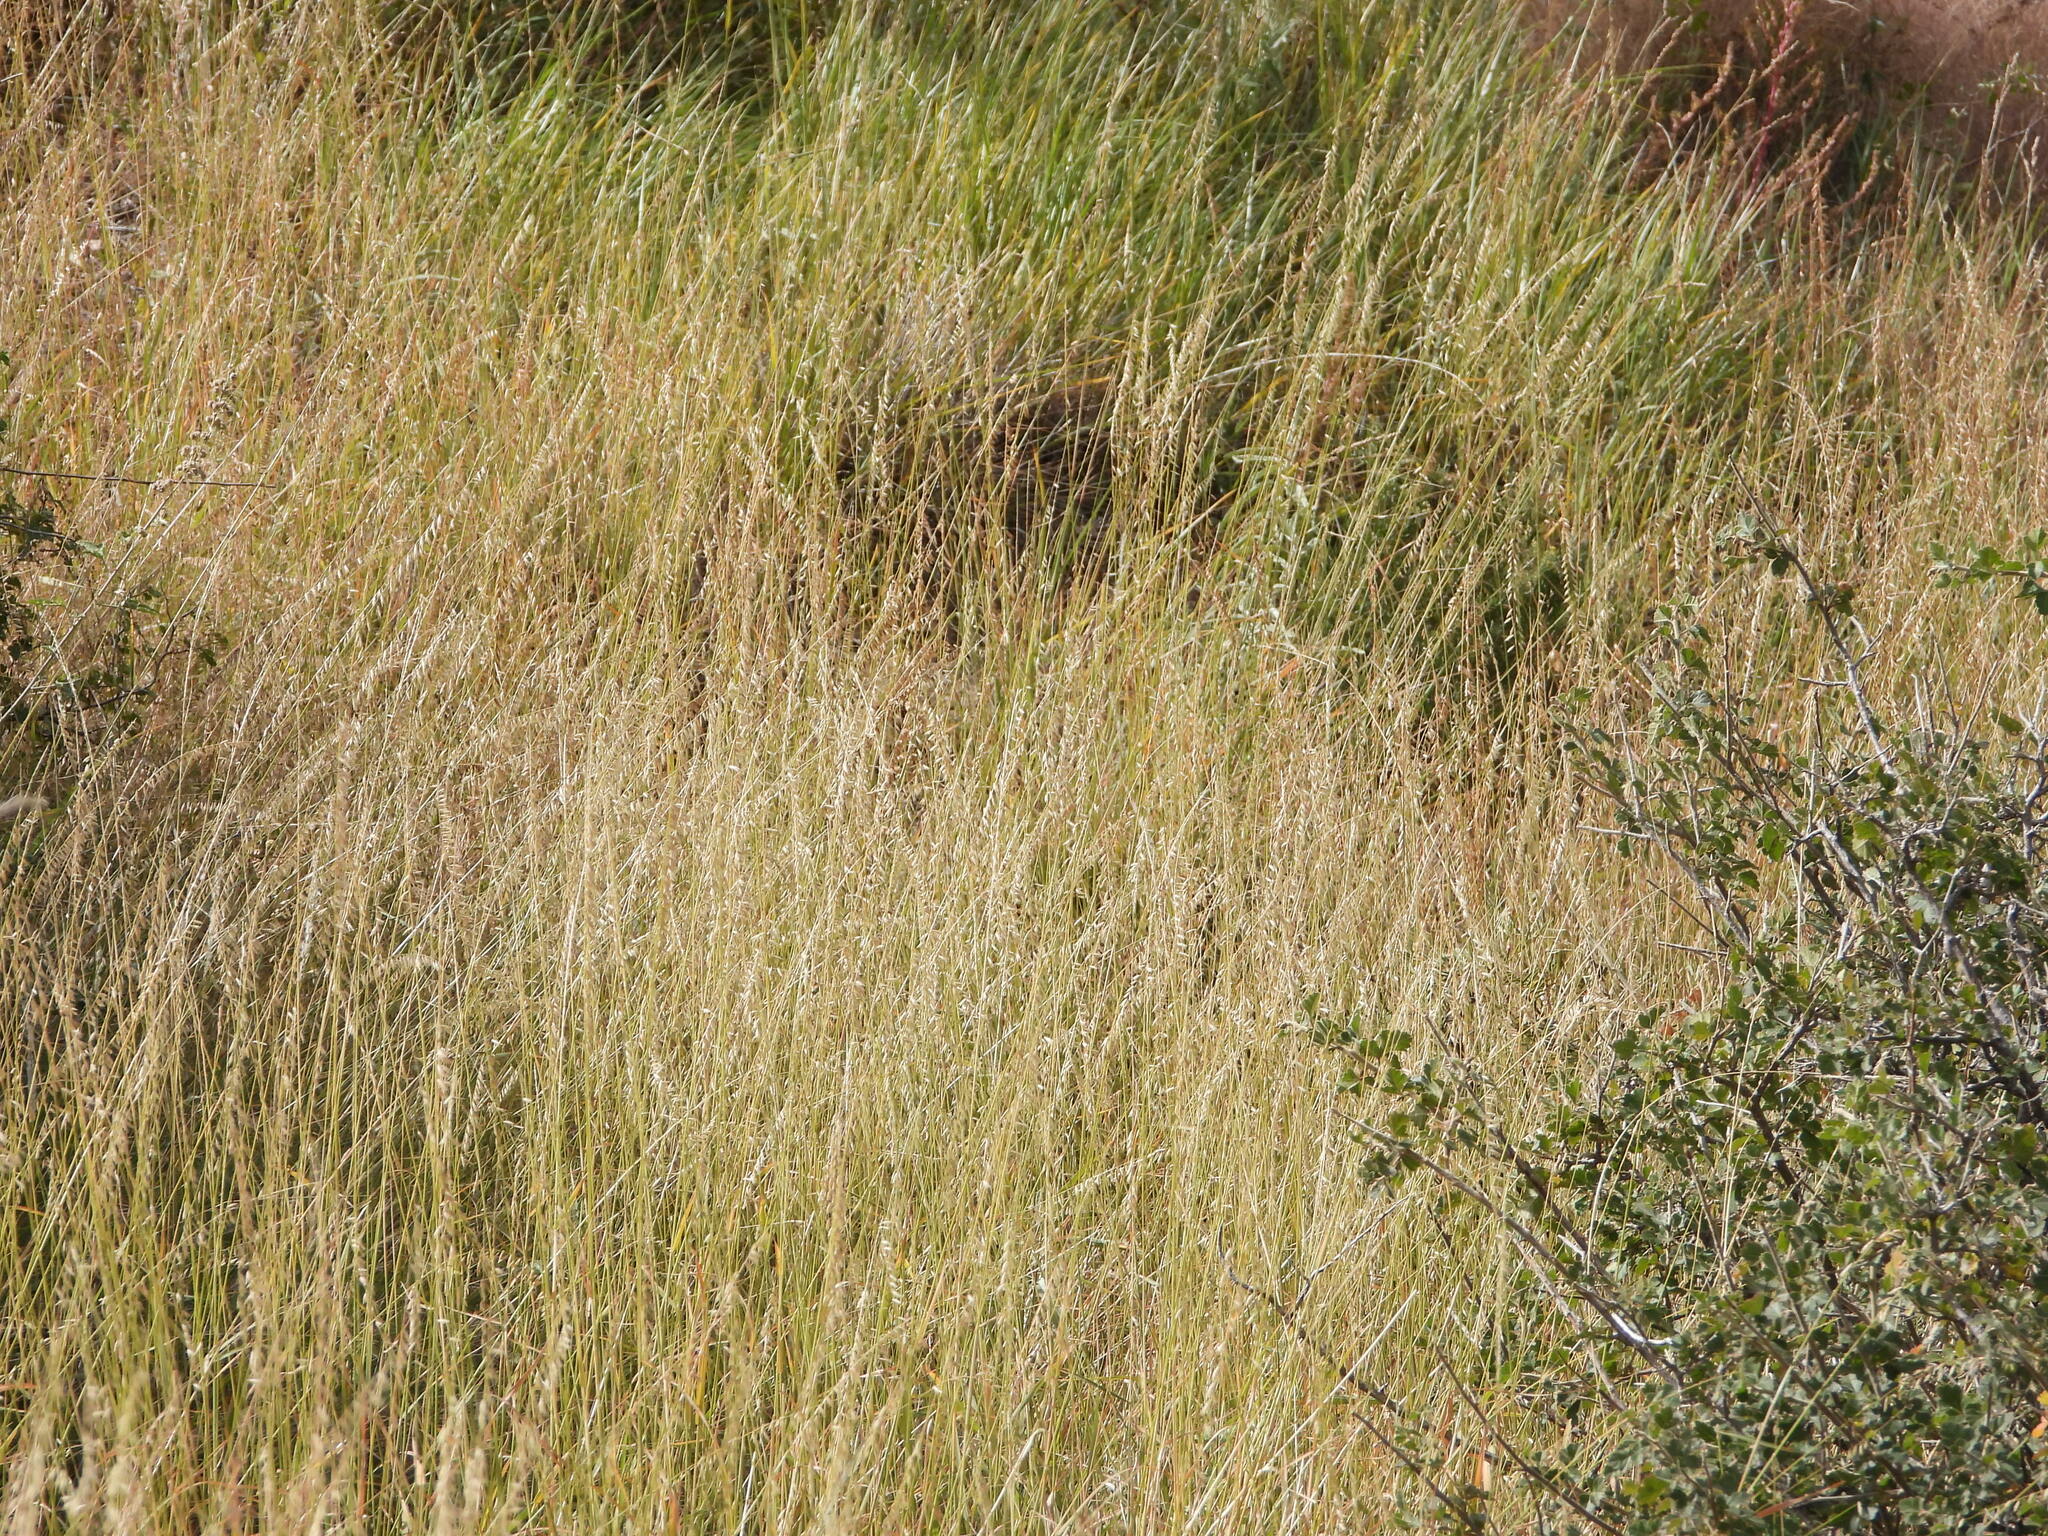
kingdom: Plantae
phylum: Tracheophyta
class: Liliopsida
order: Poales
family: Poaceae
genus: Bouteloua
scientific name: Bouteloua curtipendula
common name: Side-oats grama
